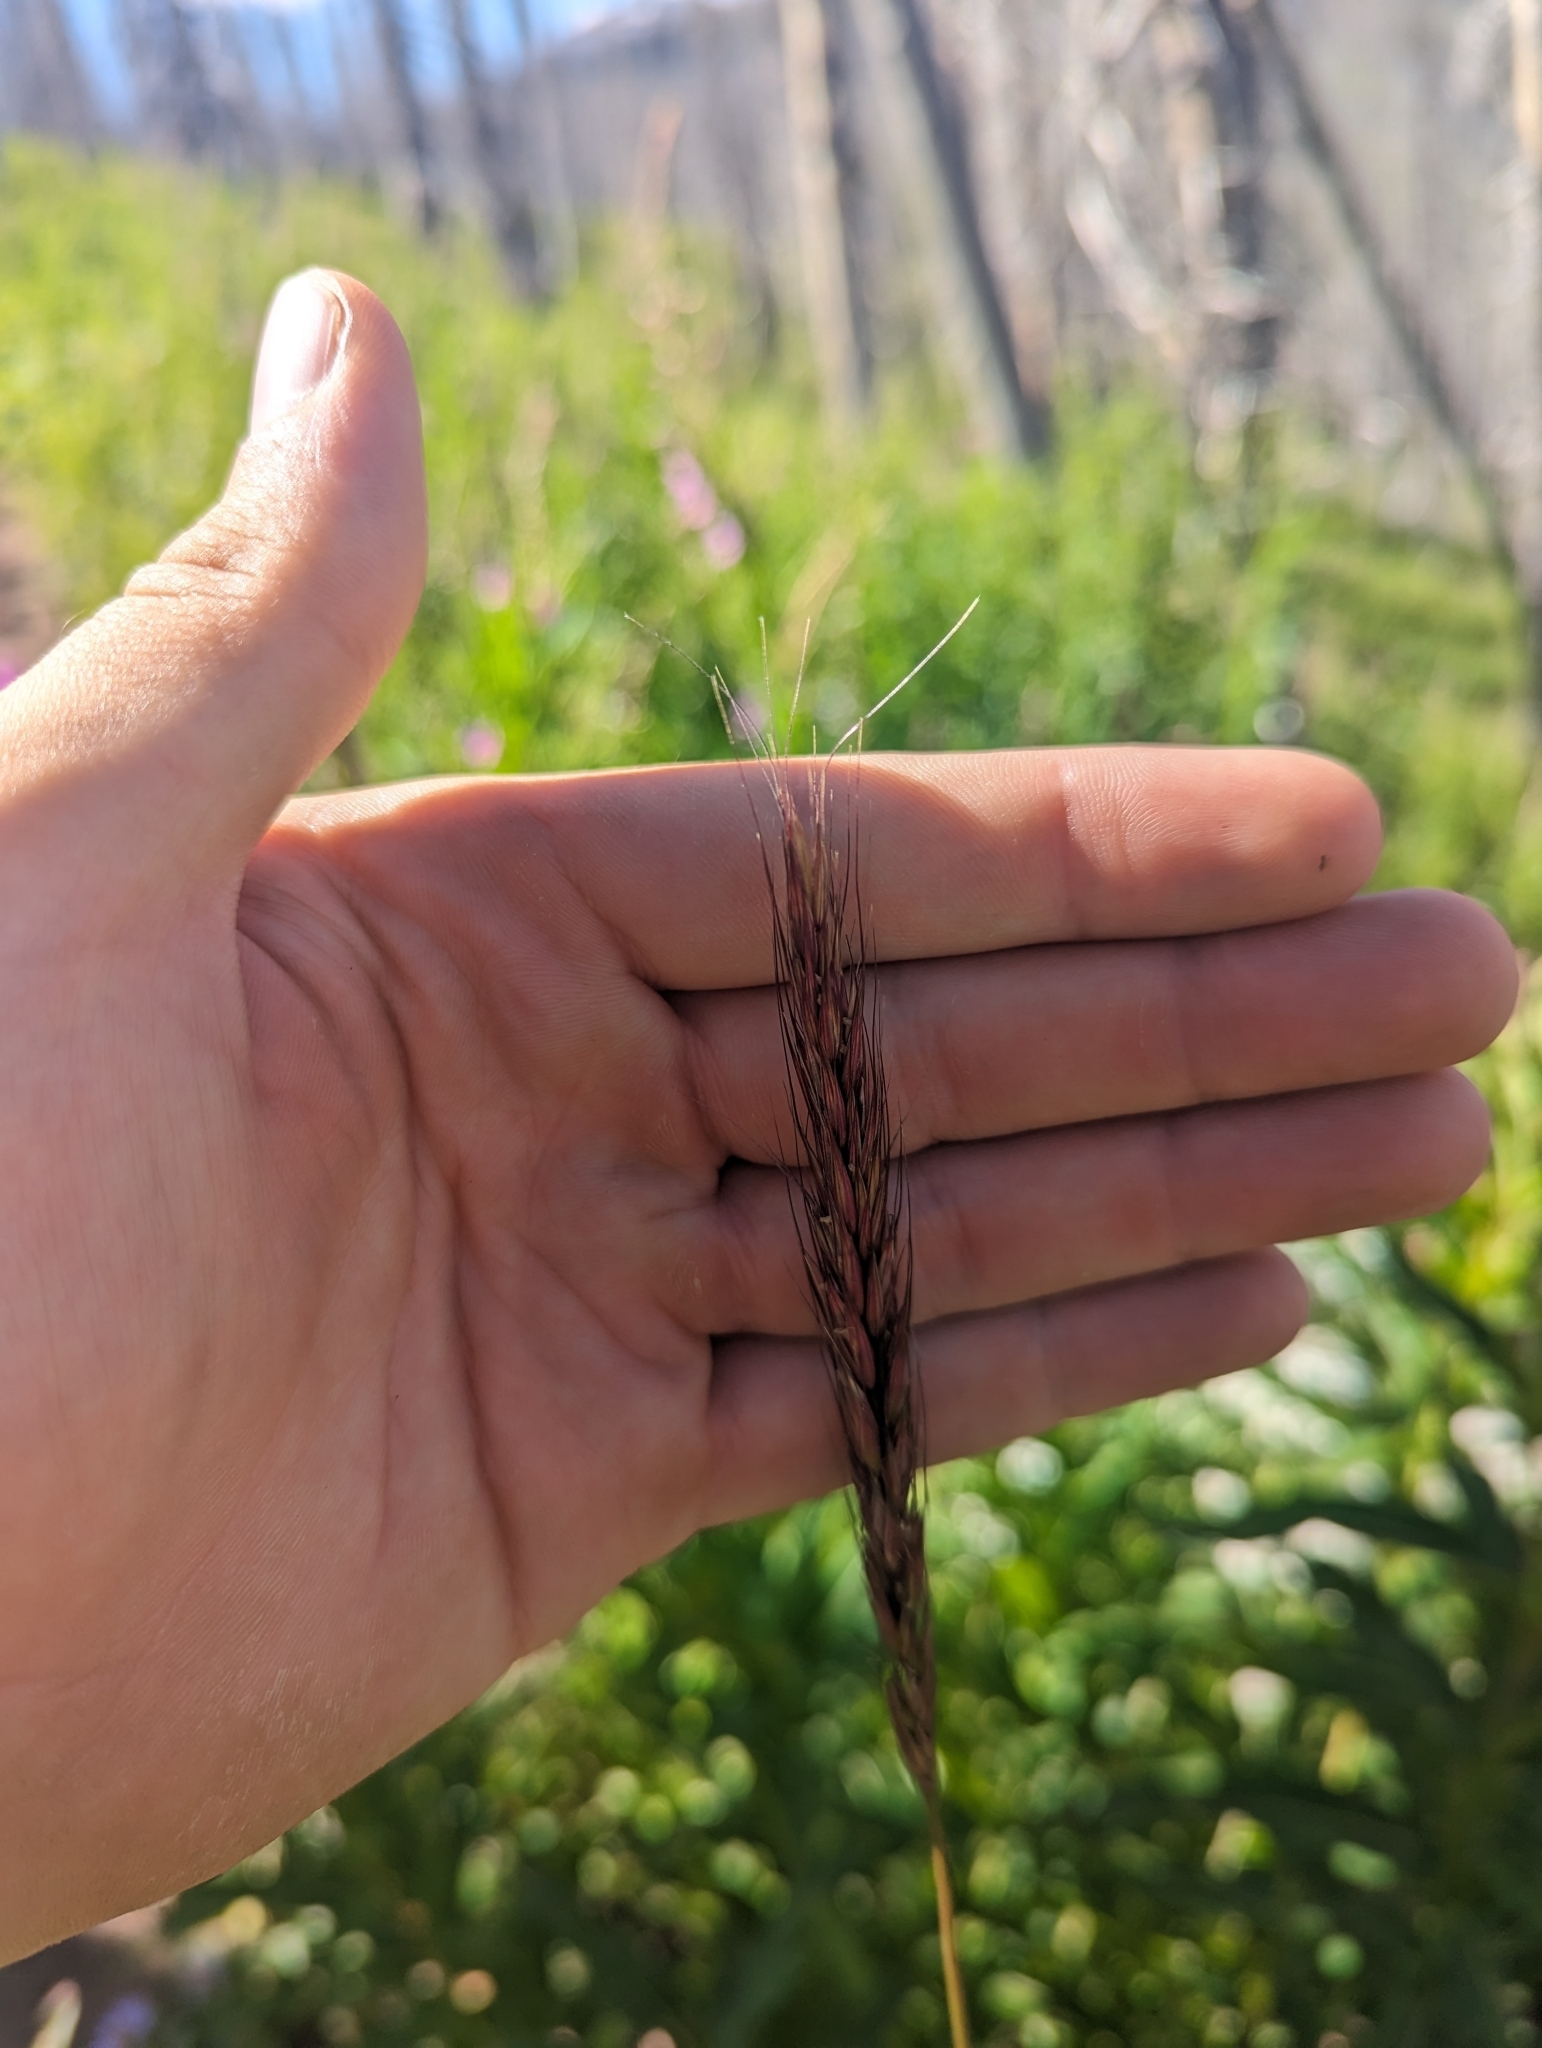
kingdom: Plantae
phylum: Tracheophyta
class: Liliopsida
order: Poales
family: Poaceae
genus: Elymus
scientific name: Elymus glaucus
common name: Blue wild rye
